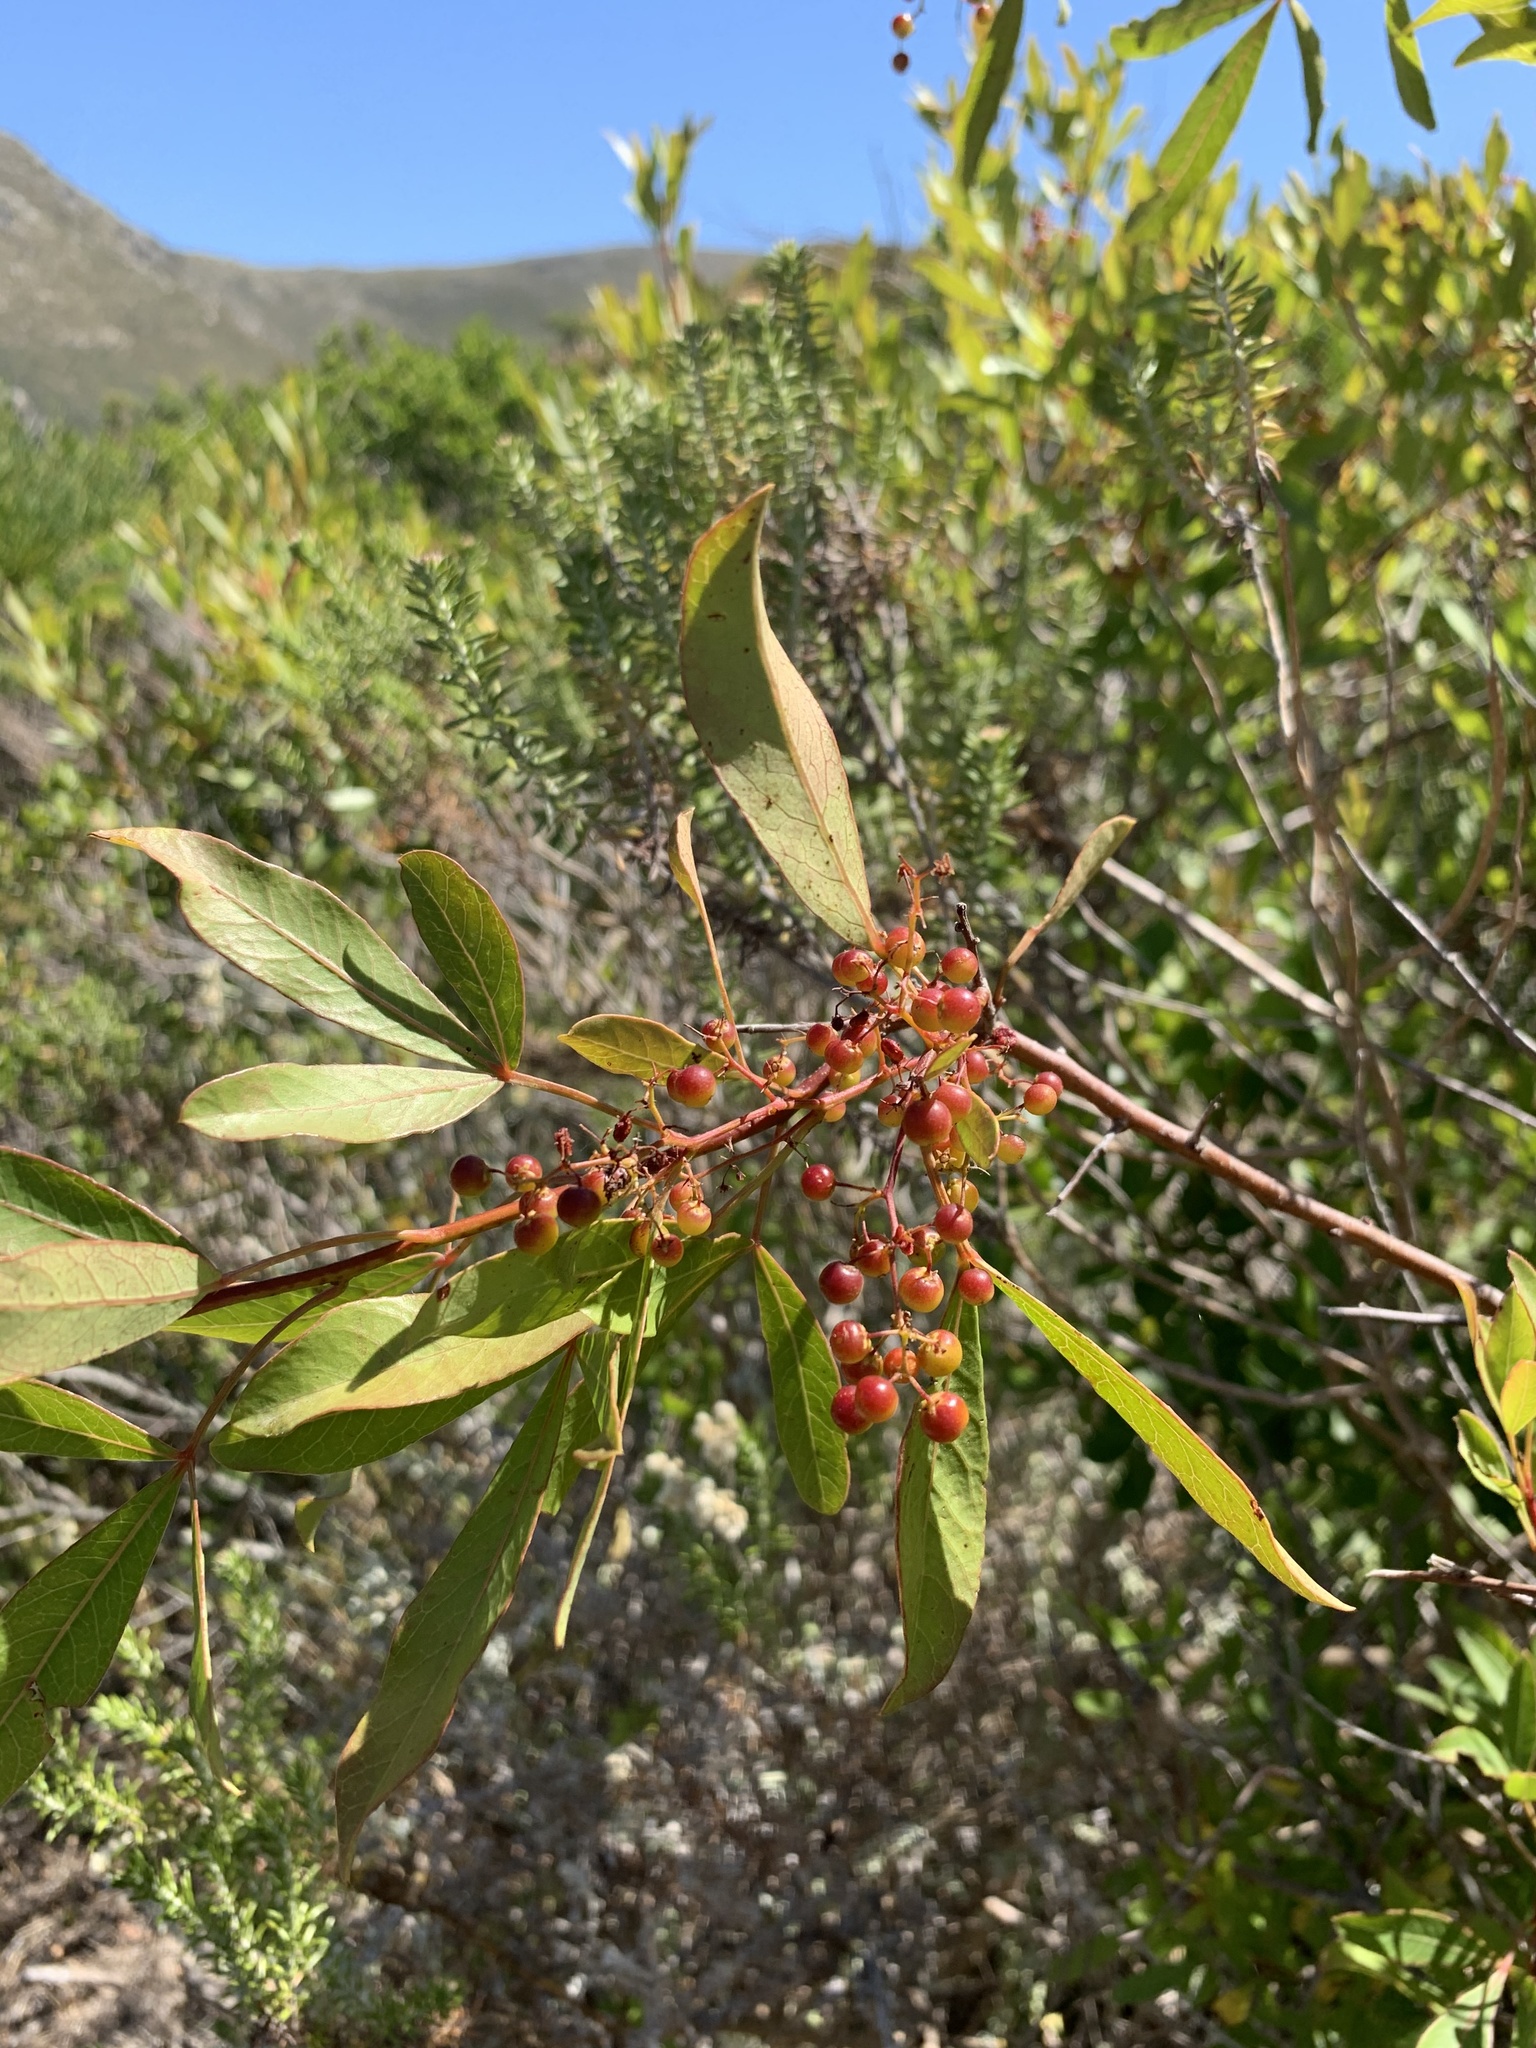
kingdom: Plantae
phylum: Tracheophyta
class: Magnoliopsida
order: Sapindales
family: Anacardiaceae
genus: Searsia
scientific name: Searsia laevigata
